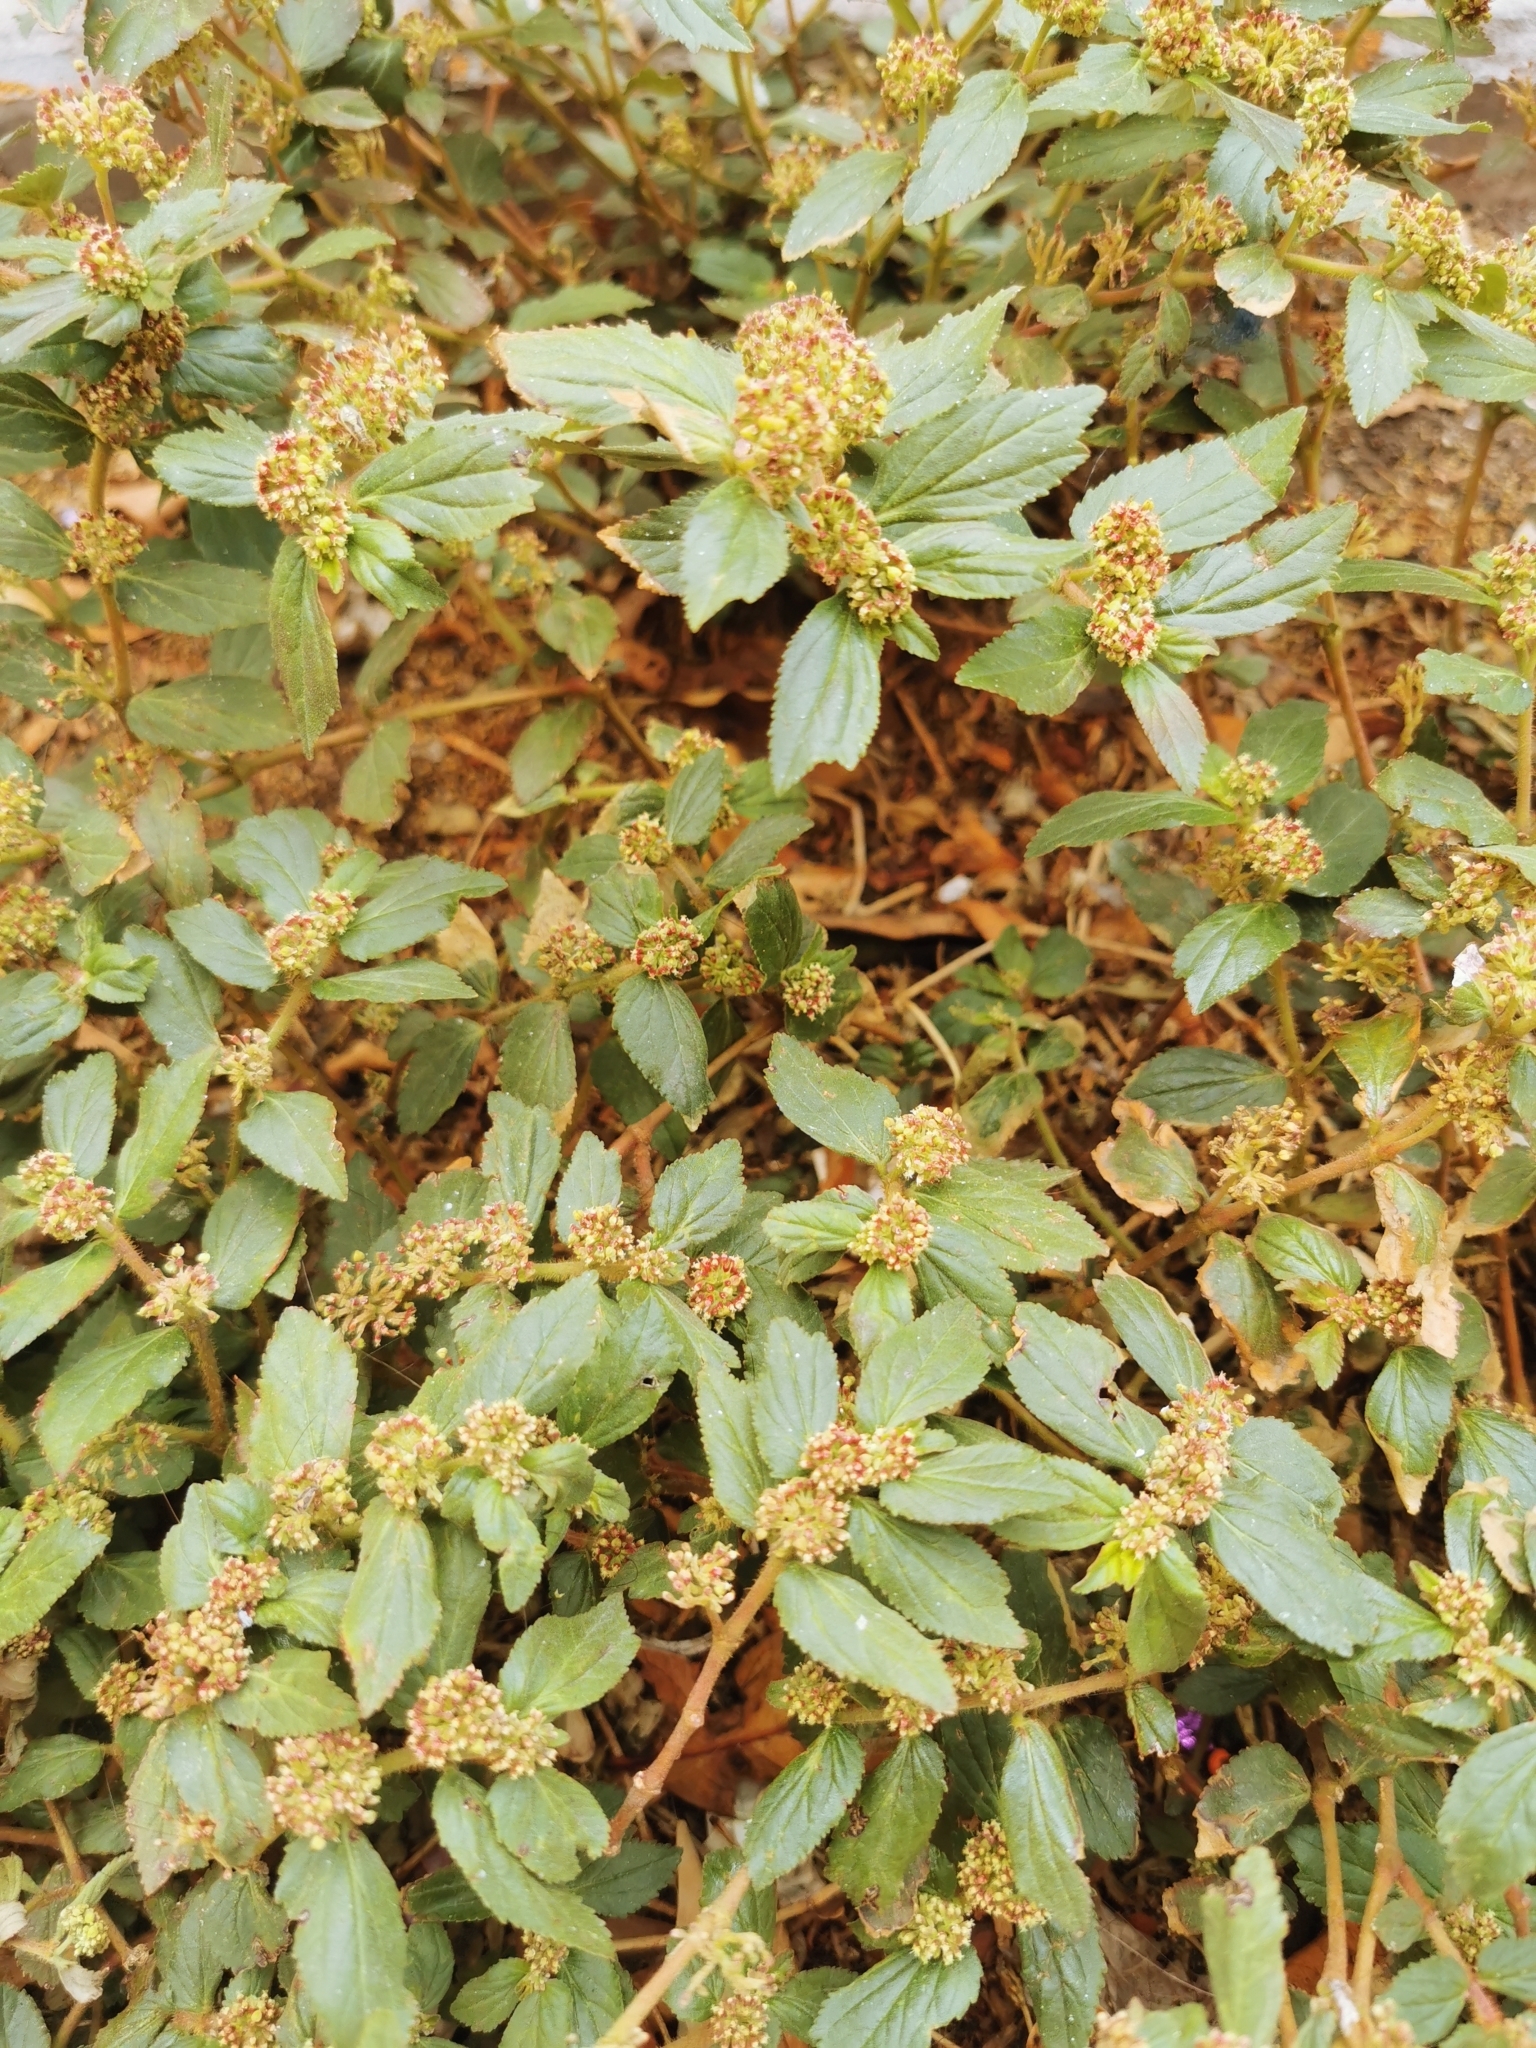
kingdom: Plantae
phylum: Tracheophyta
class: Magnoliopsida
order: Malpighiales
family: Euphorbiaceae
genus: Euphorbia
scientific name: Euphorbia hirta
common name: Pillpod sandmat
